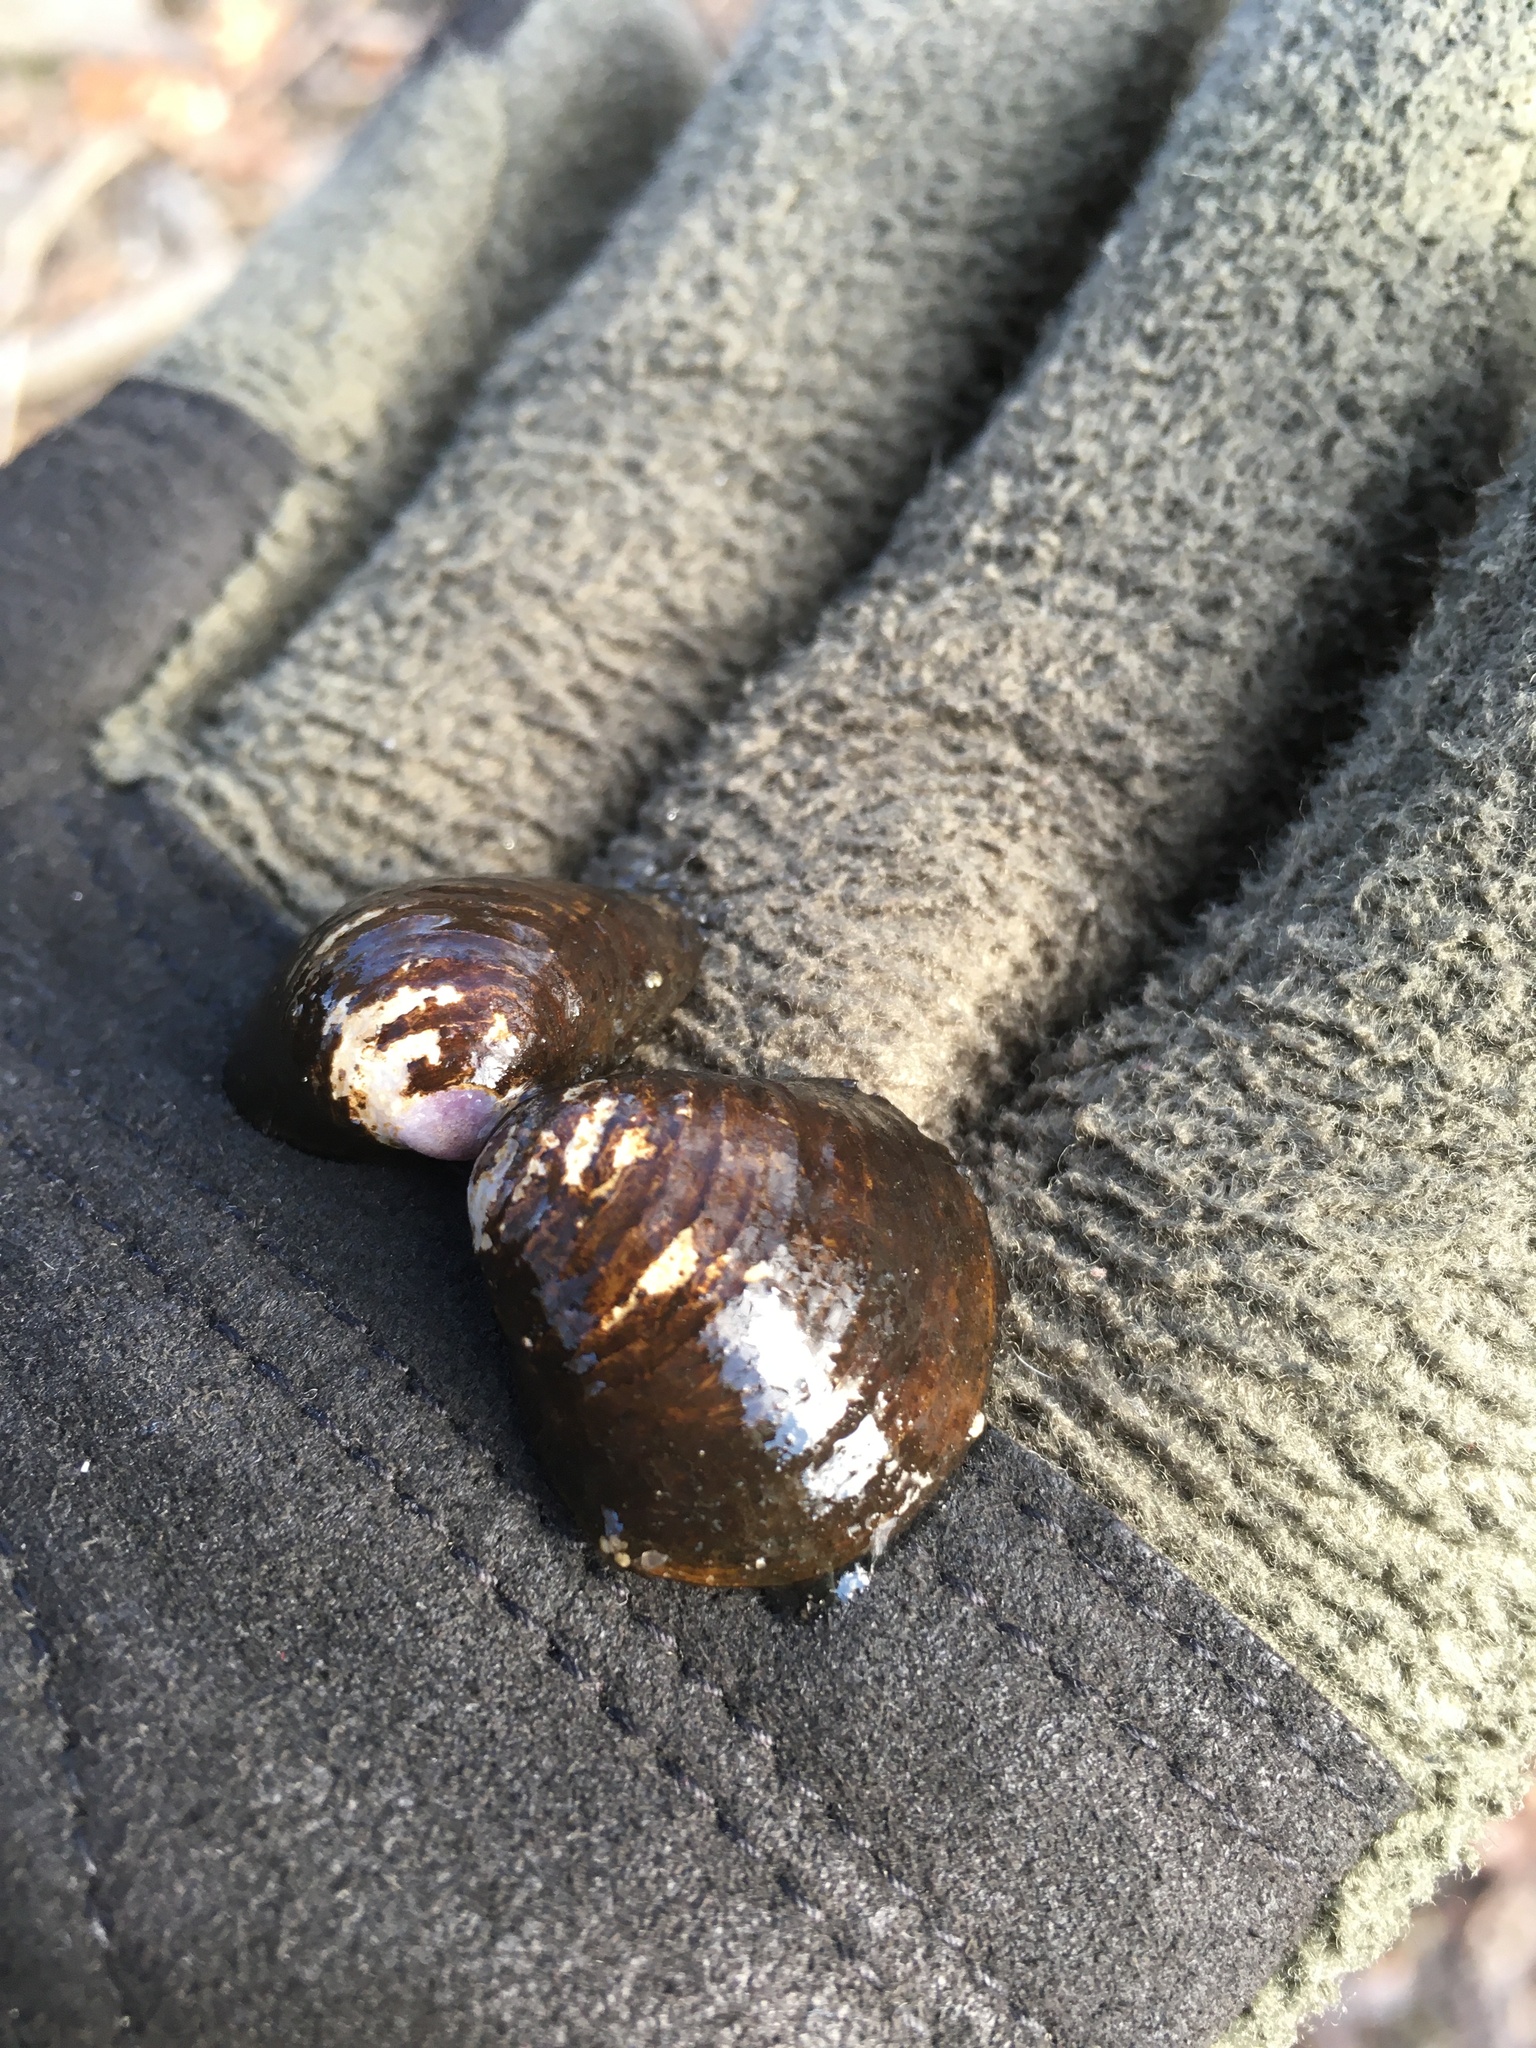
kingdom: Animalia
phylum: Mollusca
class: Bivalvia
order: Venerida
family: Cyrenidae
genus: Corbicula
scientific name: Corbicula fluminea
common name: Asian clam
